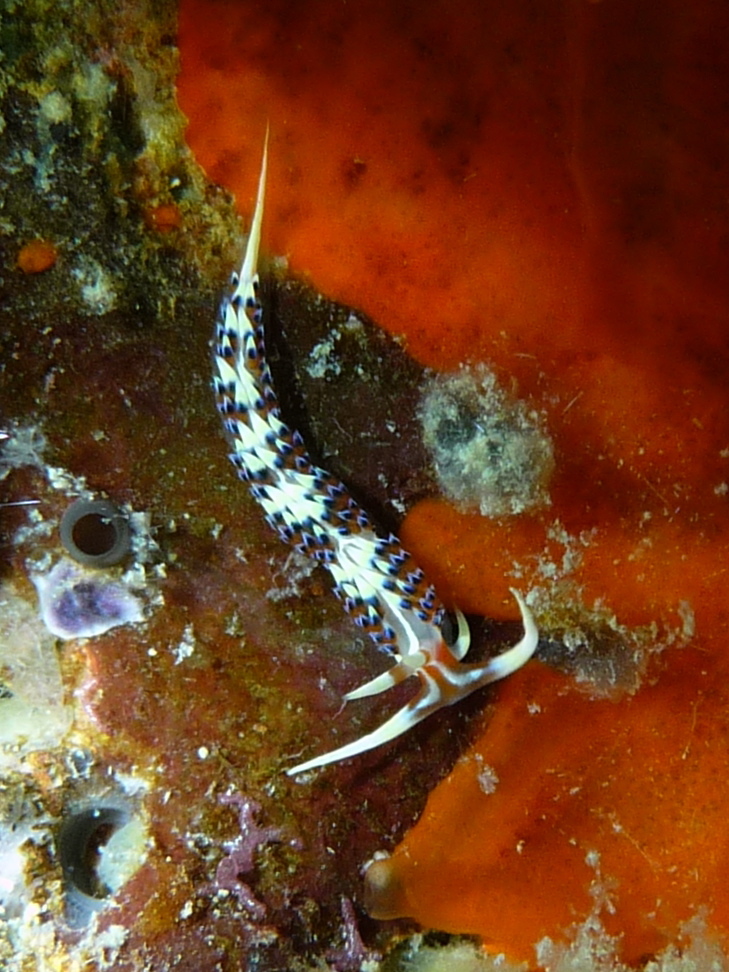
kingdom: Animalia
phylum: Mollusca
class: Gastropoda
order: Nudibranchia
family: Facelinidae
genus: Caloria
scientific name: Caloria indica
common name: Sea slug
